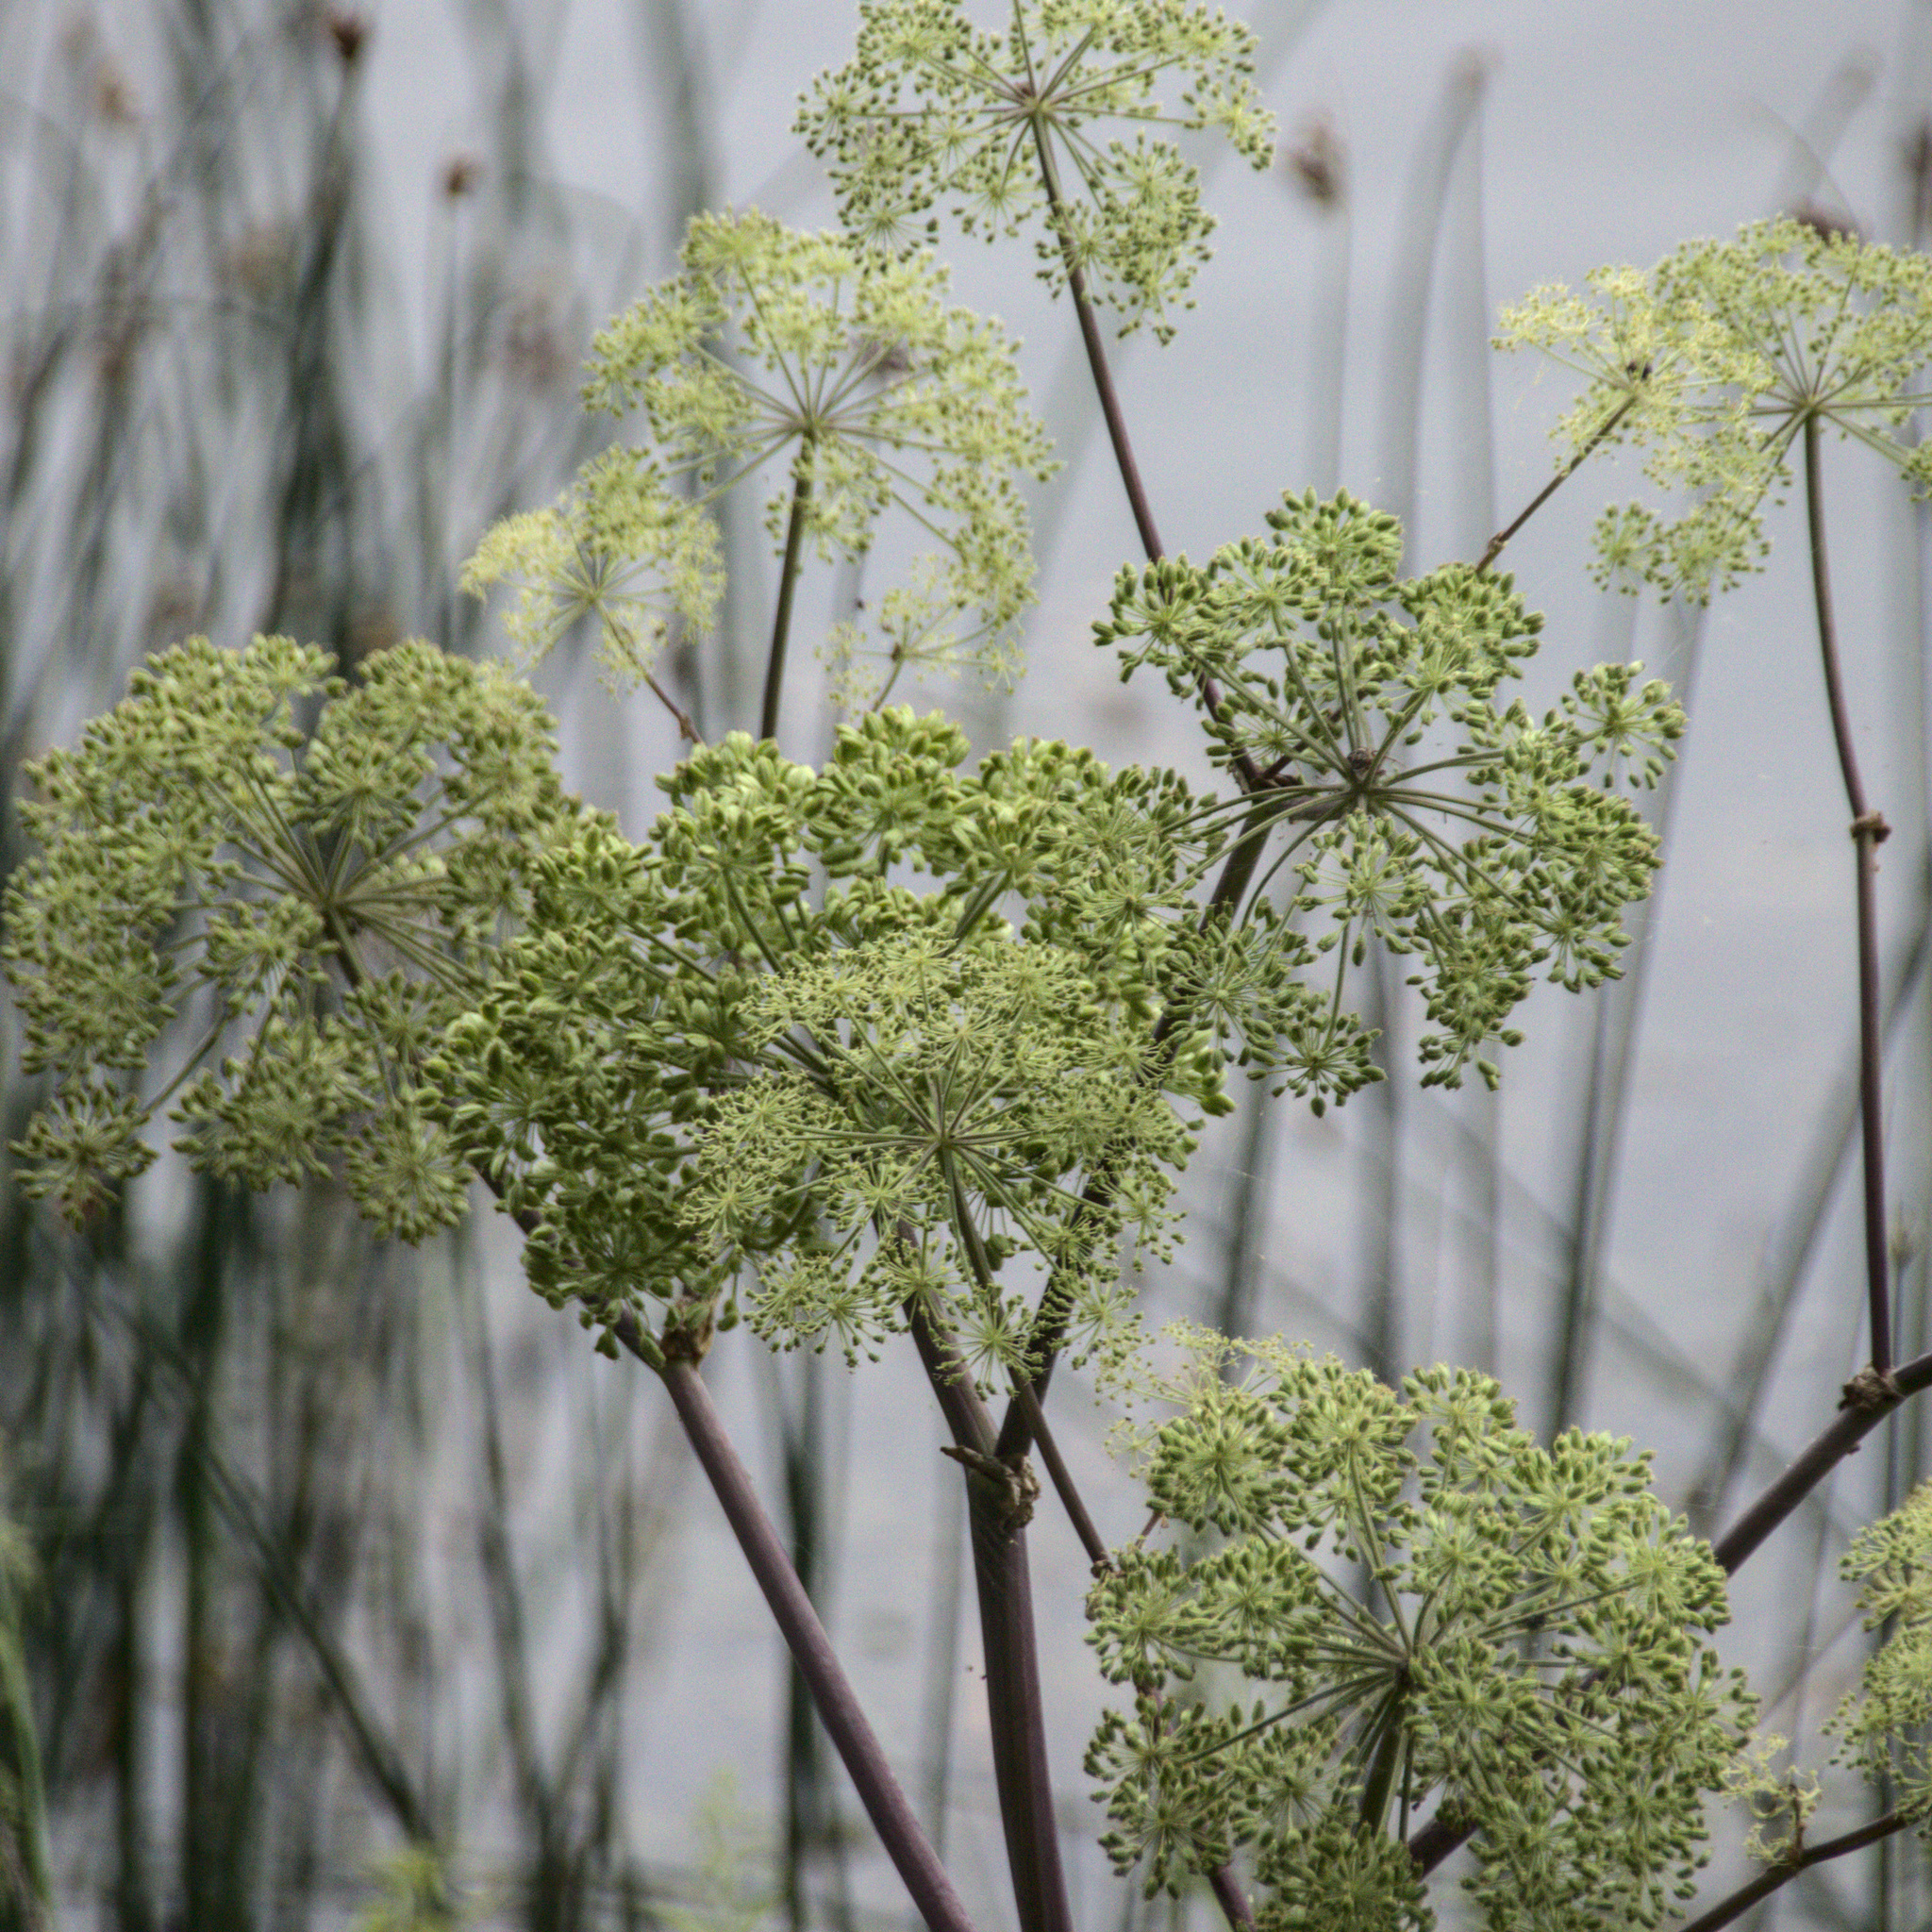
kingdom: Plantae
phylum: Tracheophyta
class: Magnoliopsida
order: Apiales
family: Apiaceae
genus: Angelica
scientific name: Angelica decurrens
